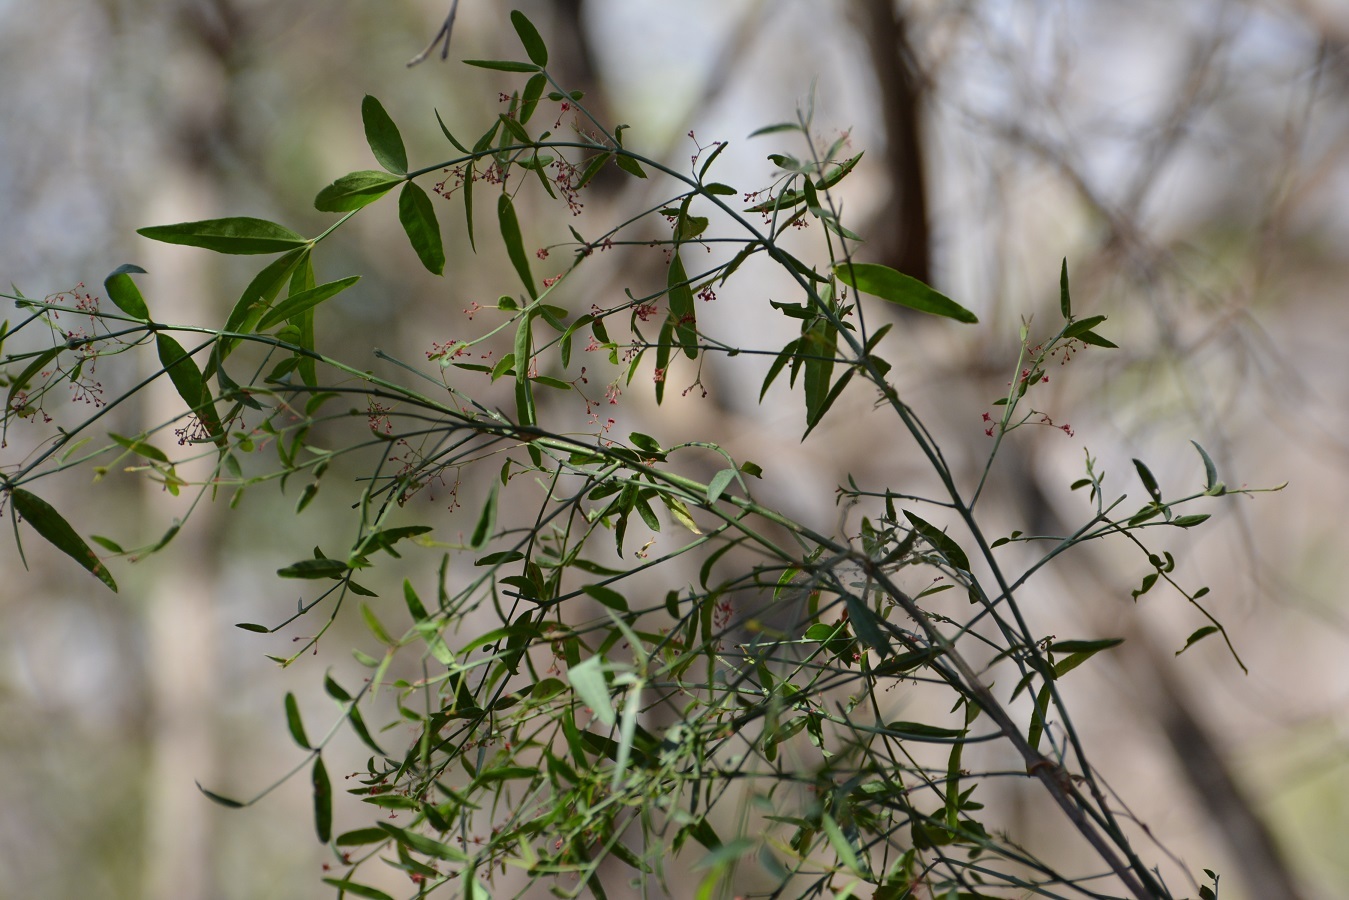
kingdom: Plantae
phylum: Tracheophyta
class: Magnoliopsida
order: Celastrales
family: Celastraceae
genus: Crossopetalum
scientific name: Crossopetalum uragoga
